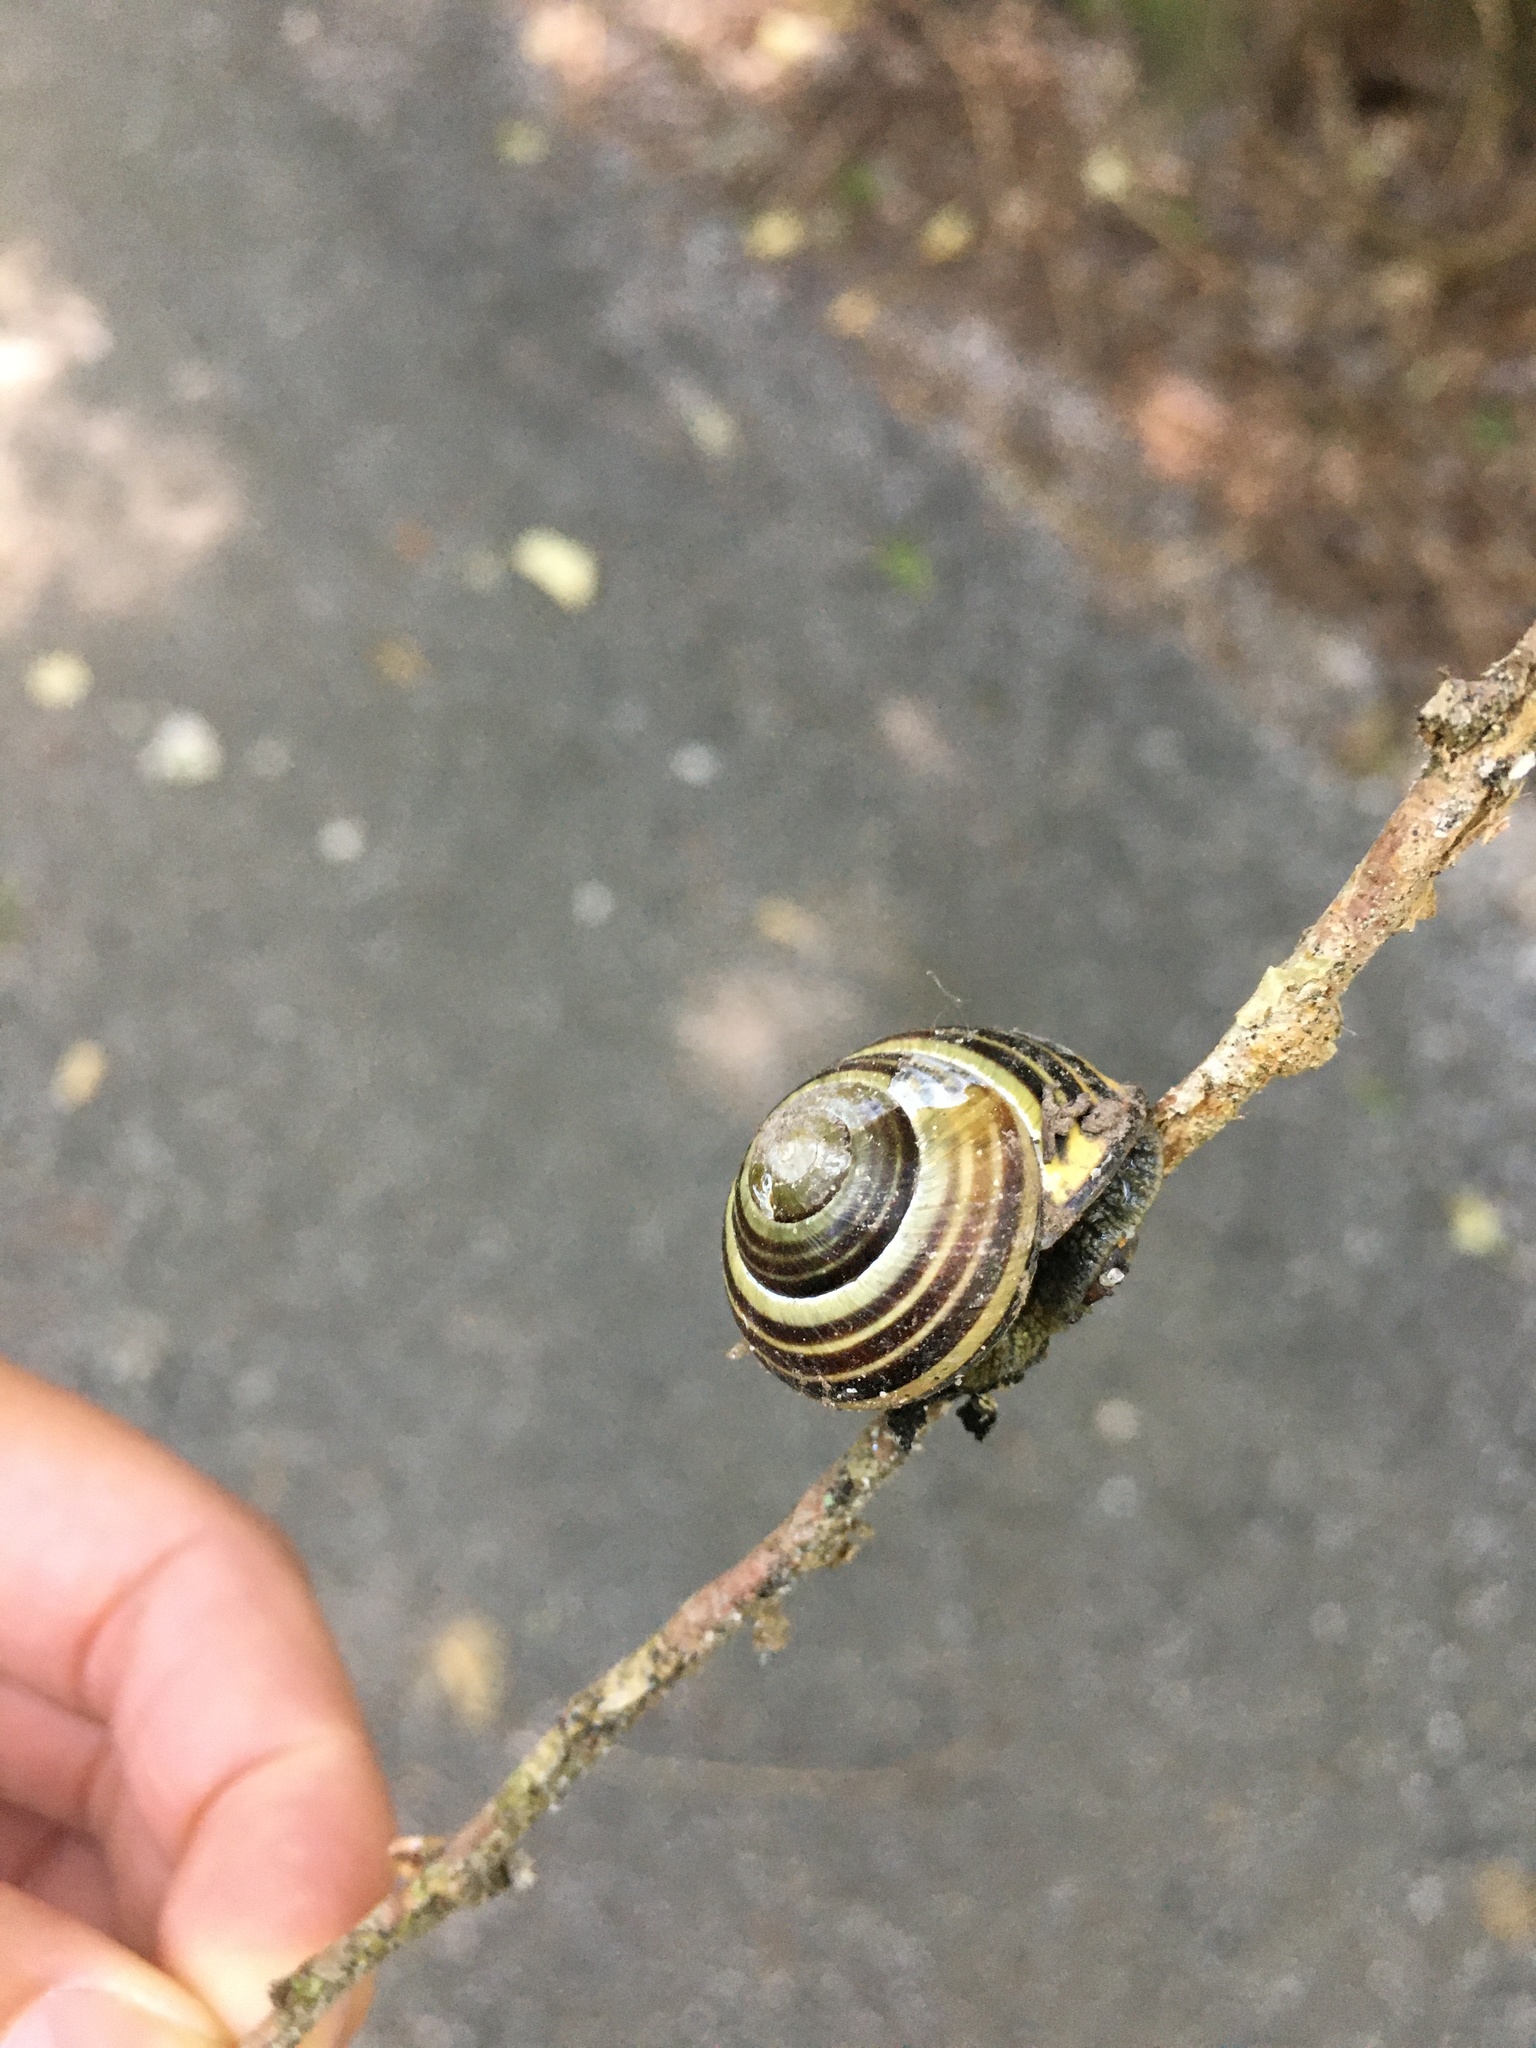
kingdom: Animalia
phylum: Mollusca
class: Gastropoda
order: Stylommatophora
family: Helicidae
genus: Cepaea
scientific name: Cepaea nemoralis
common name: Grovesnail
